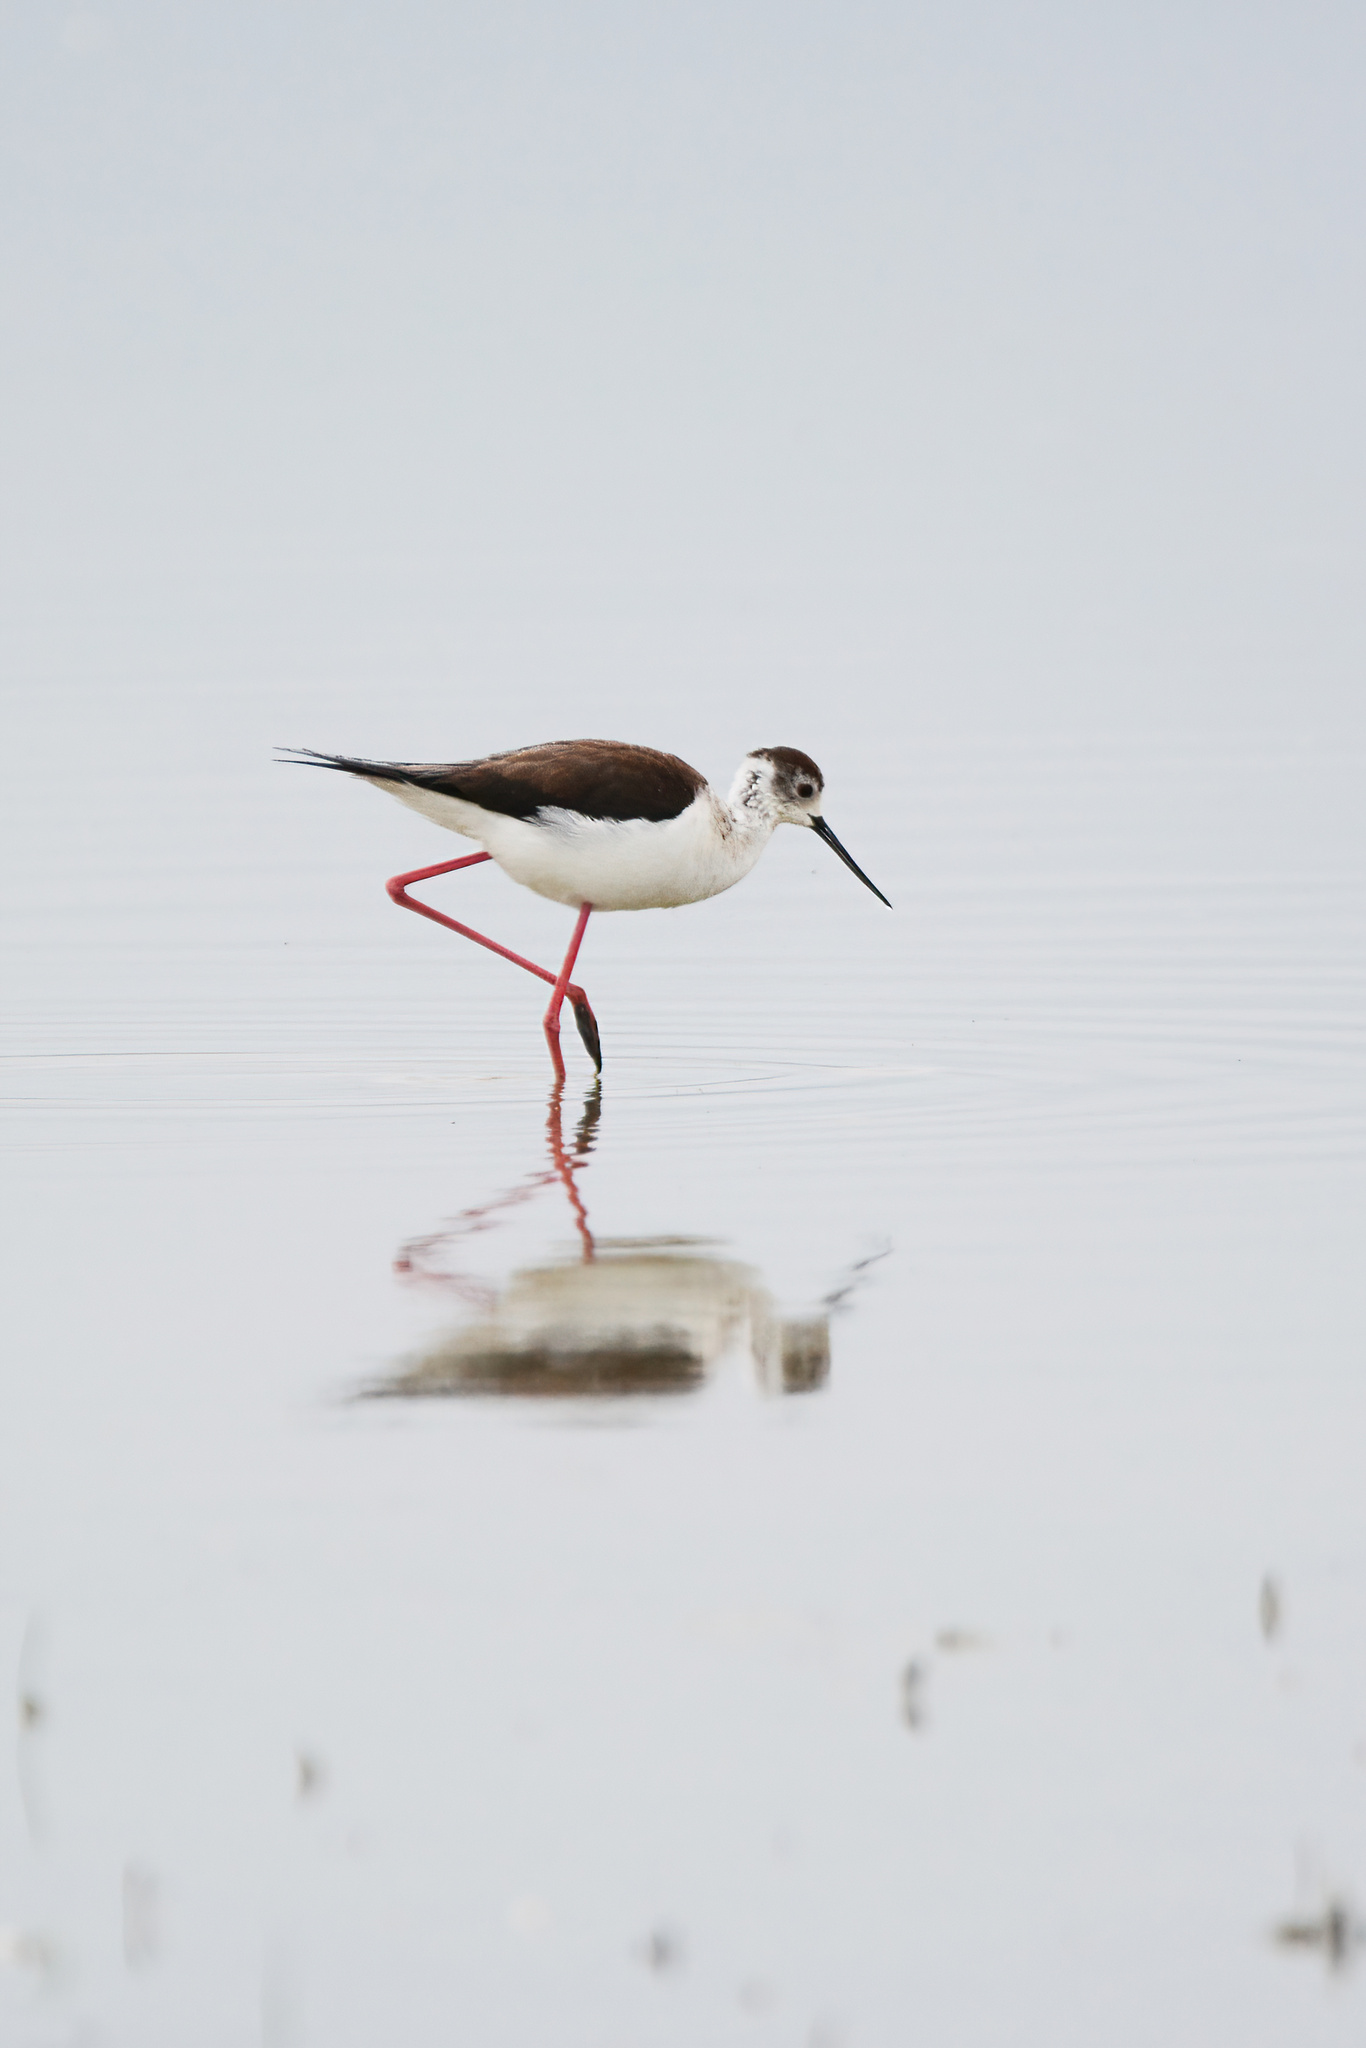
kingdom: Animalia
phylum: Chordata
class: Aves
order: Charadriiformes
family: Recurvirostridae
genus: Himantopus
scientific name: Himantopus himantopus
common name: Black-winged stilt
